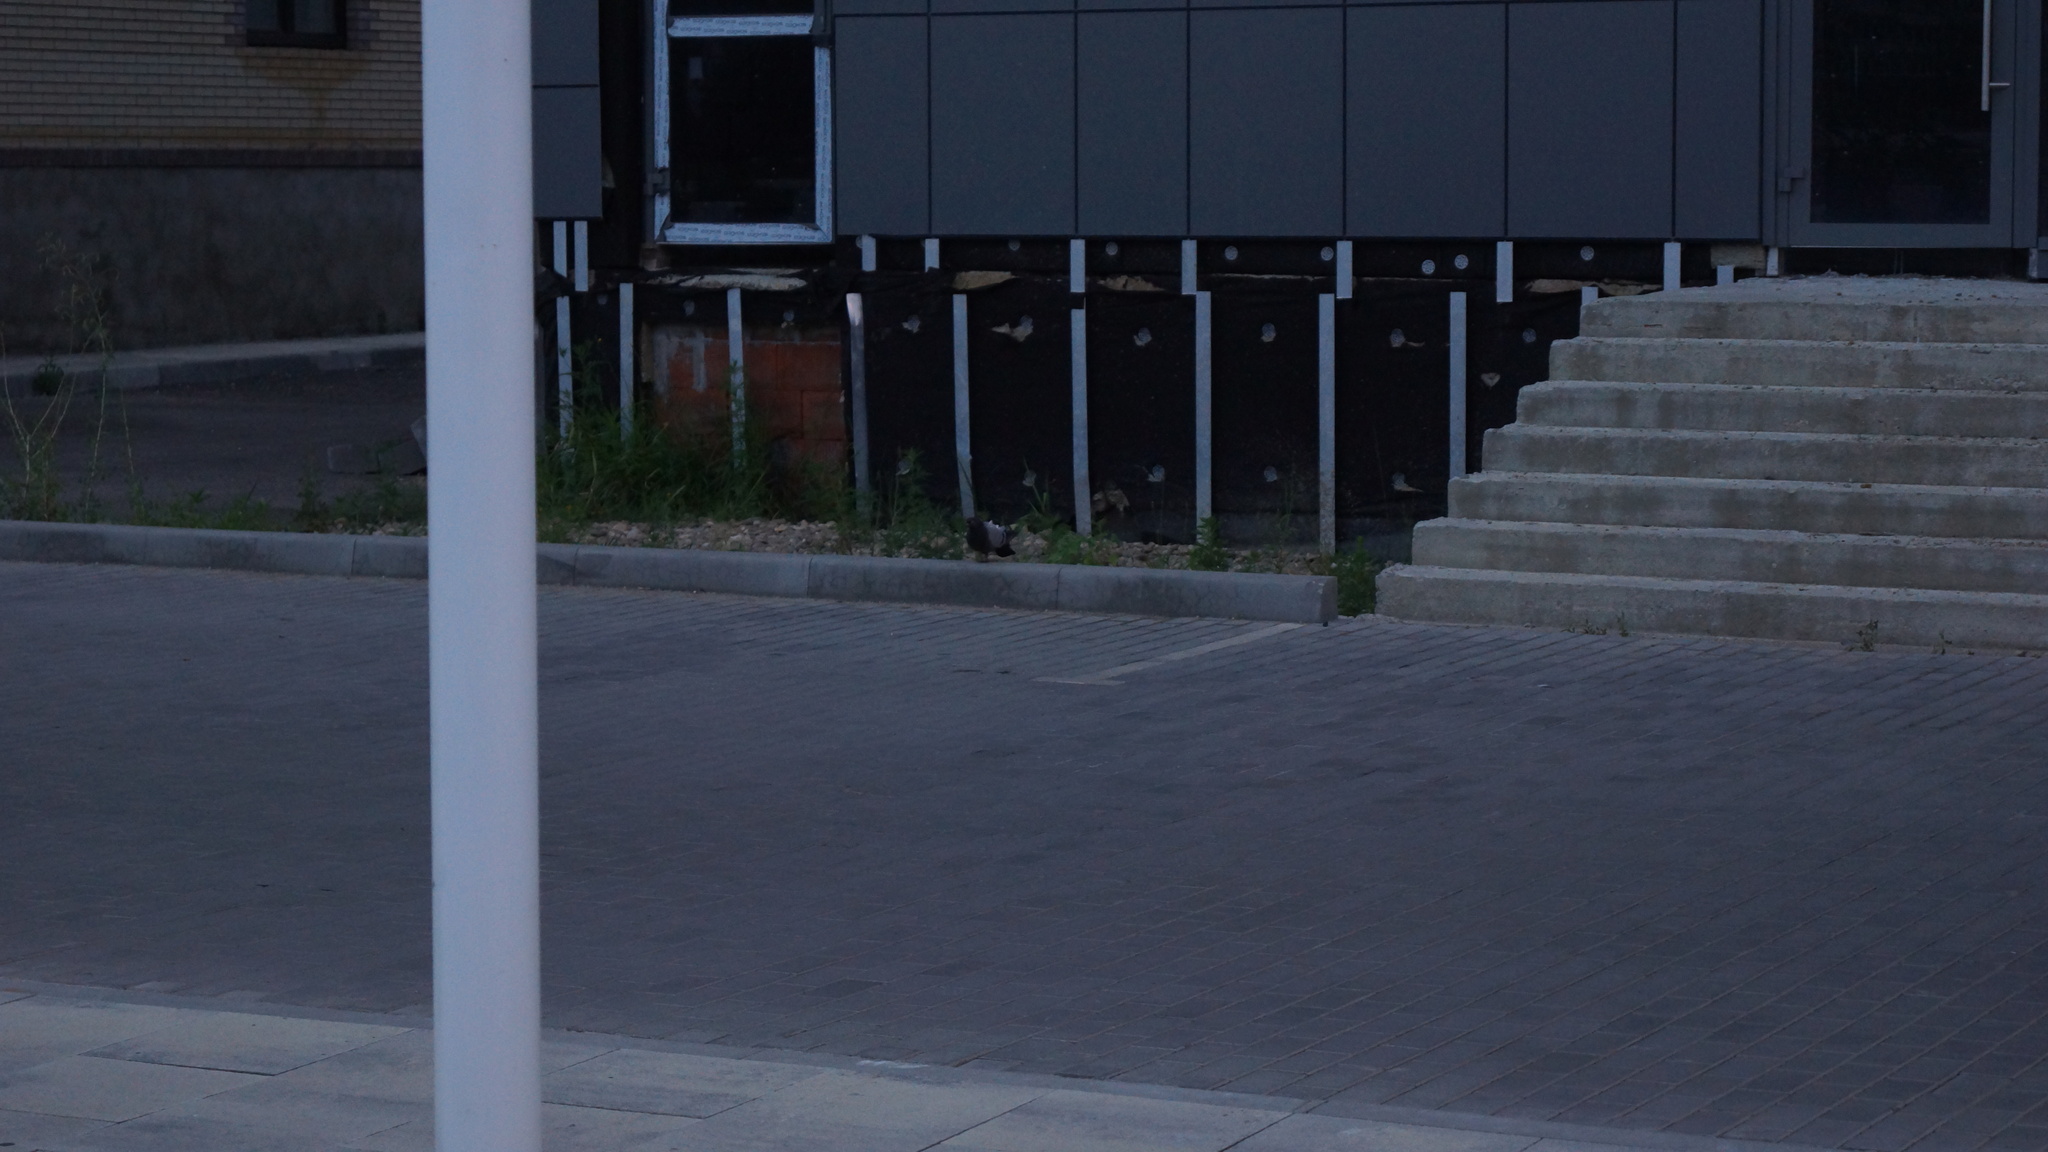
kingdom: Animalia
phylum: Chordata
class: Aves
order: Columbiformes
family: Columbidae
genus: Columba
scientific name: Columba livia
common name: Rock pigeon
